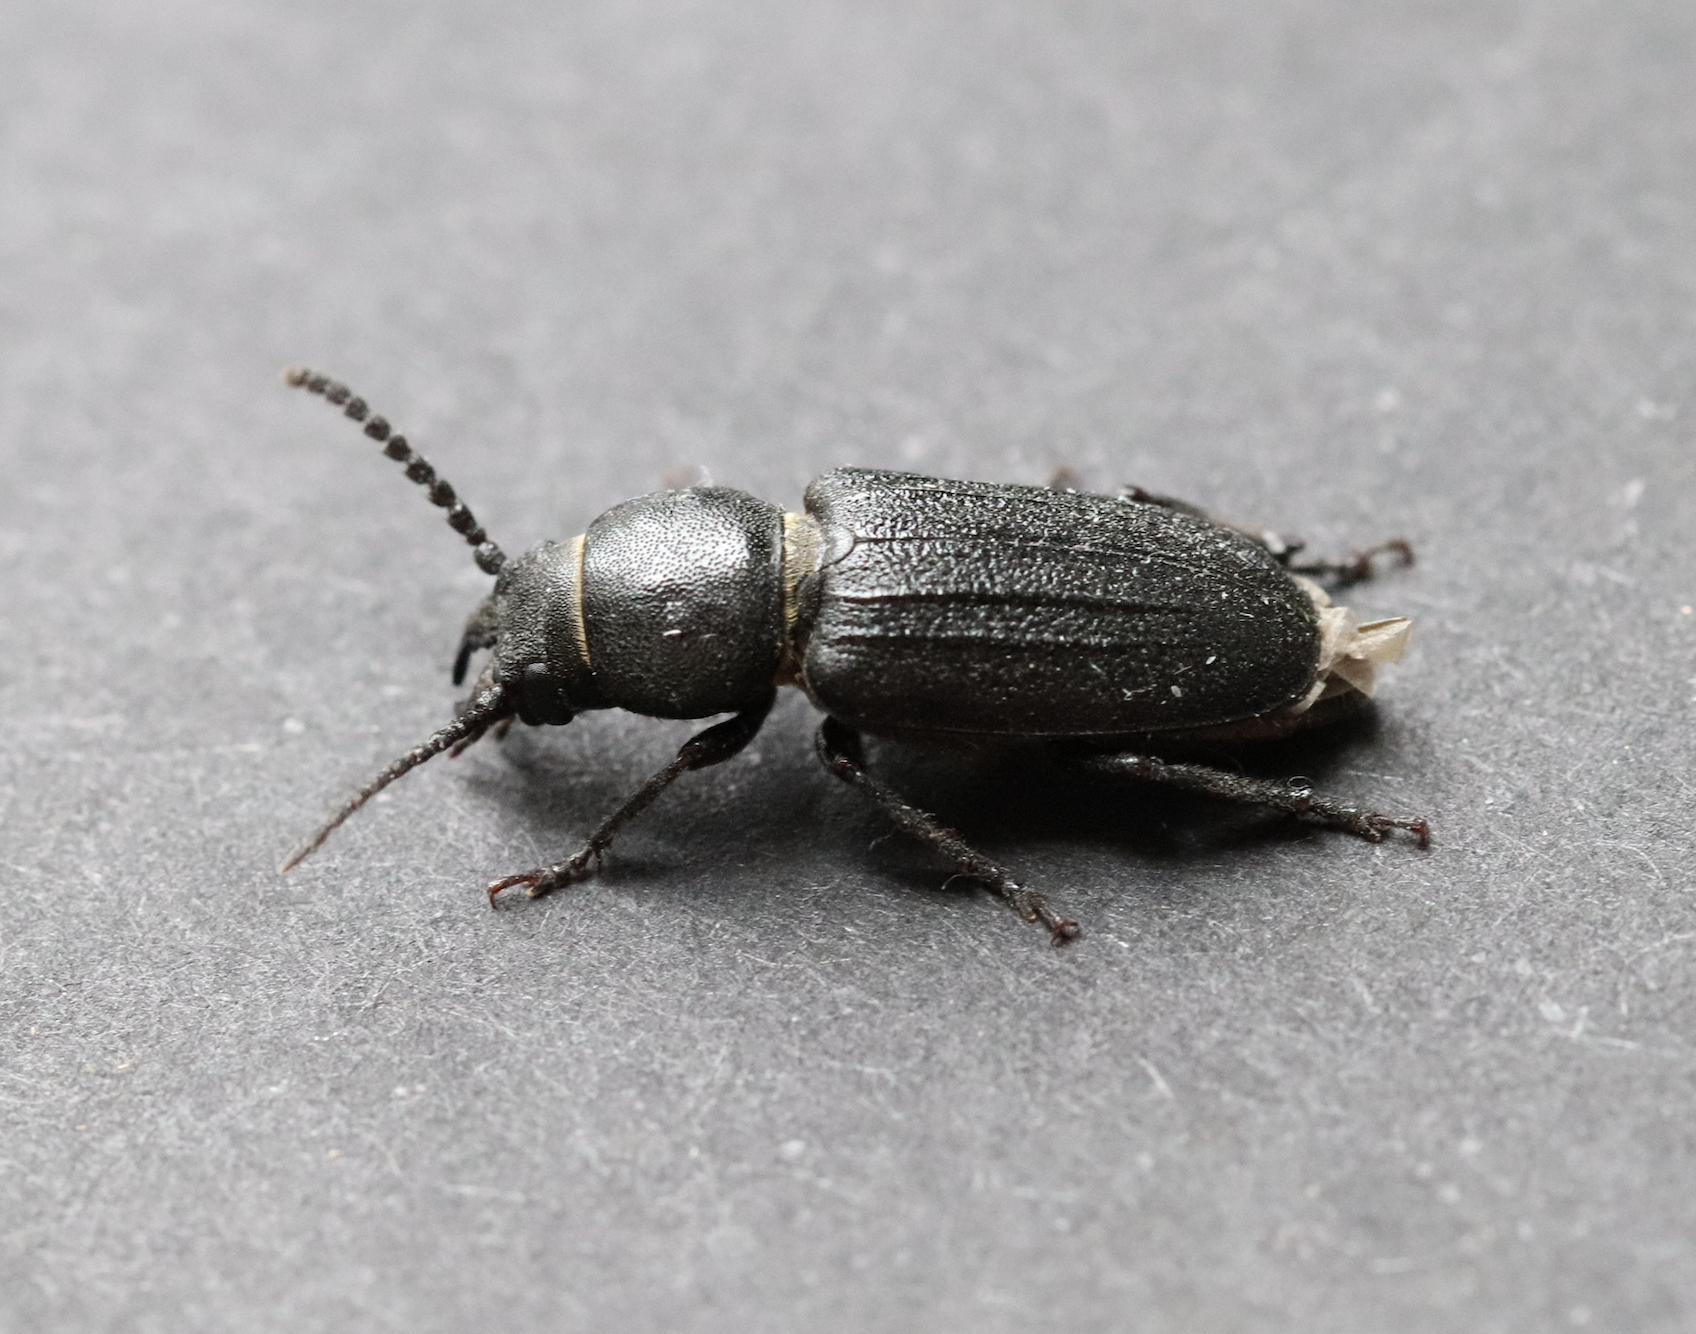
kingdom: Animalia
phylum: Arthropoda
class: Insecta
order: Coleoptera
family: Cerambycidae
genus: Spondylis
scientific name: Spondylis buprestoides
